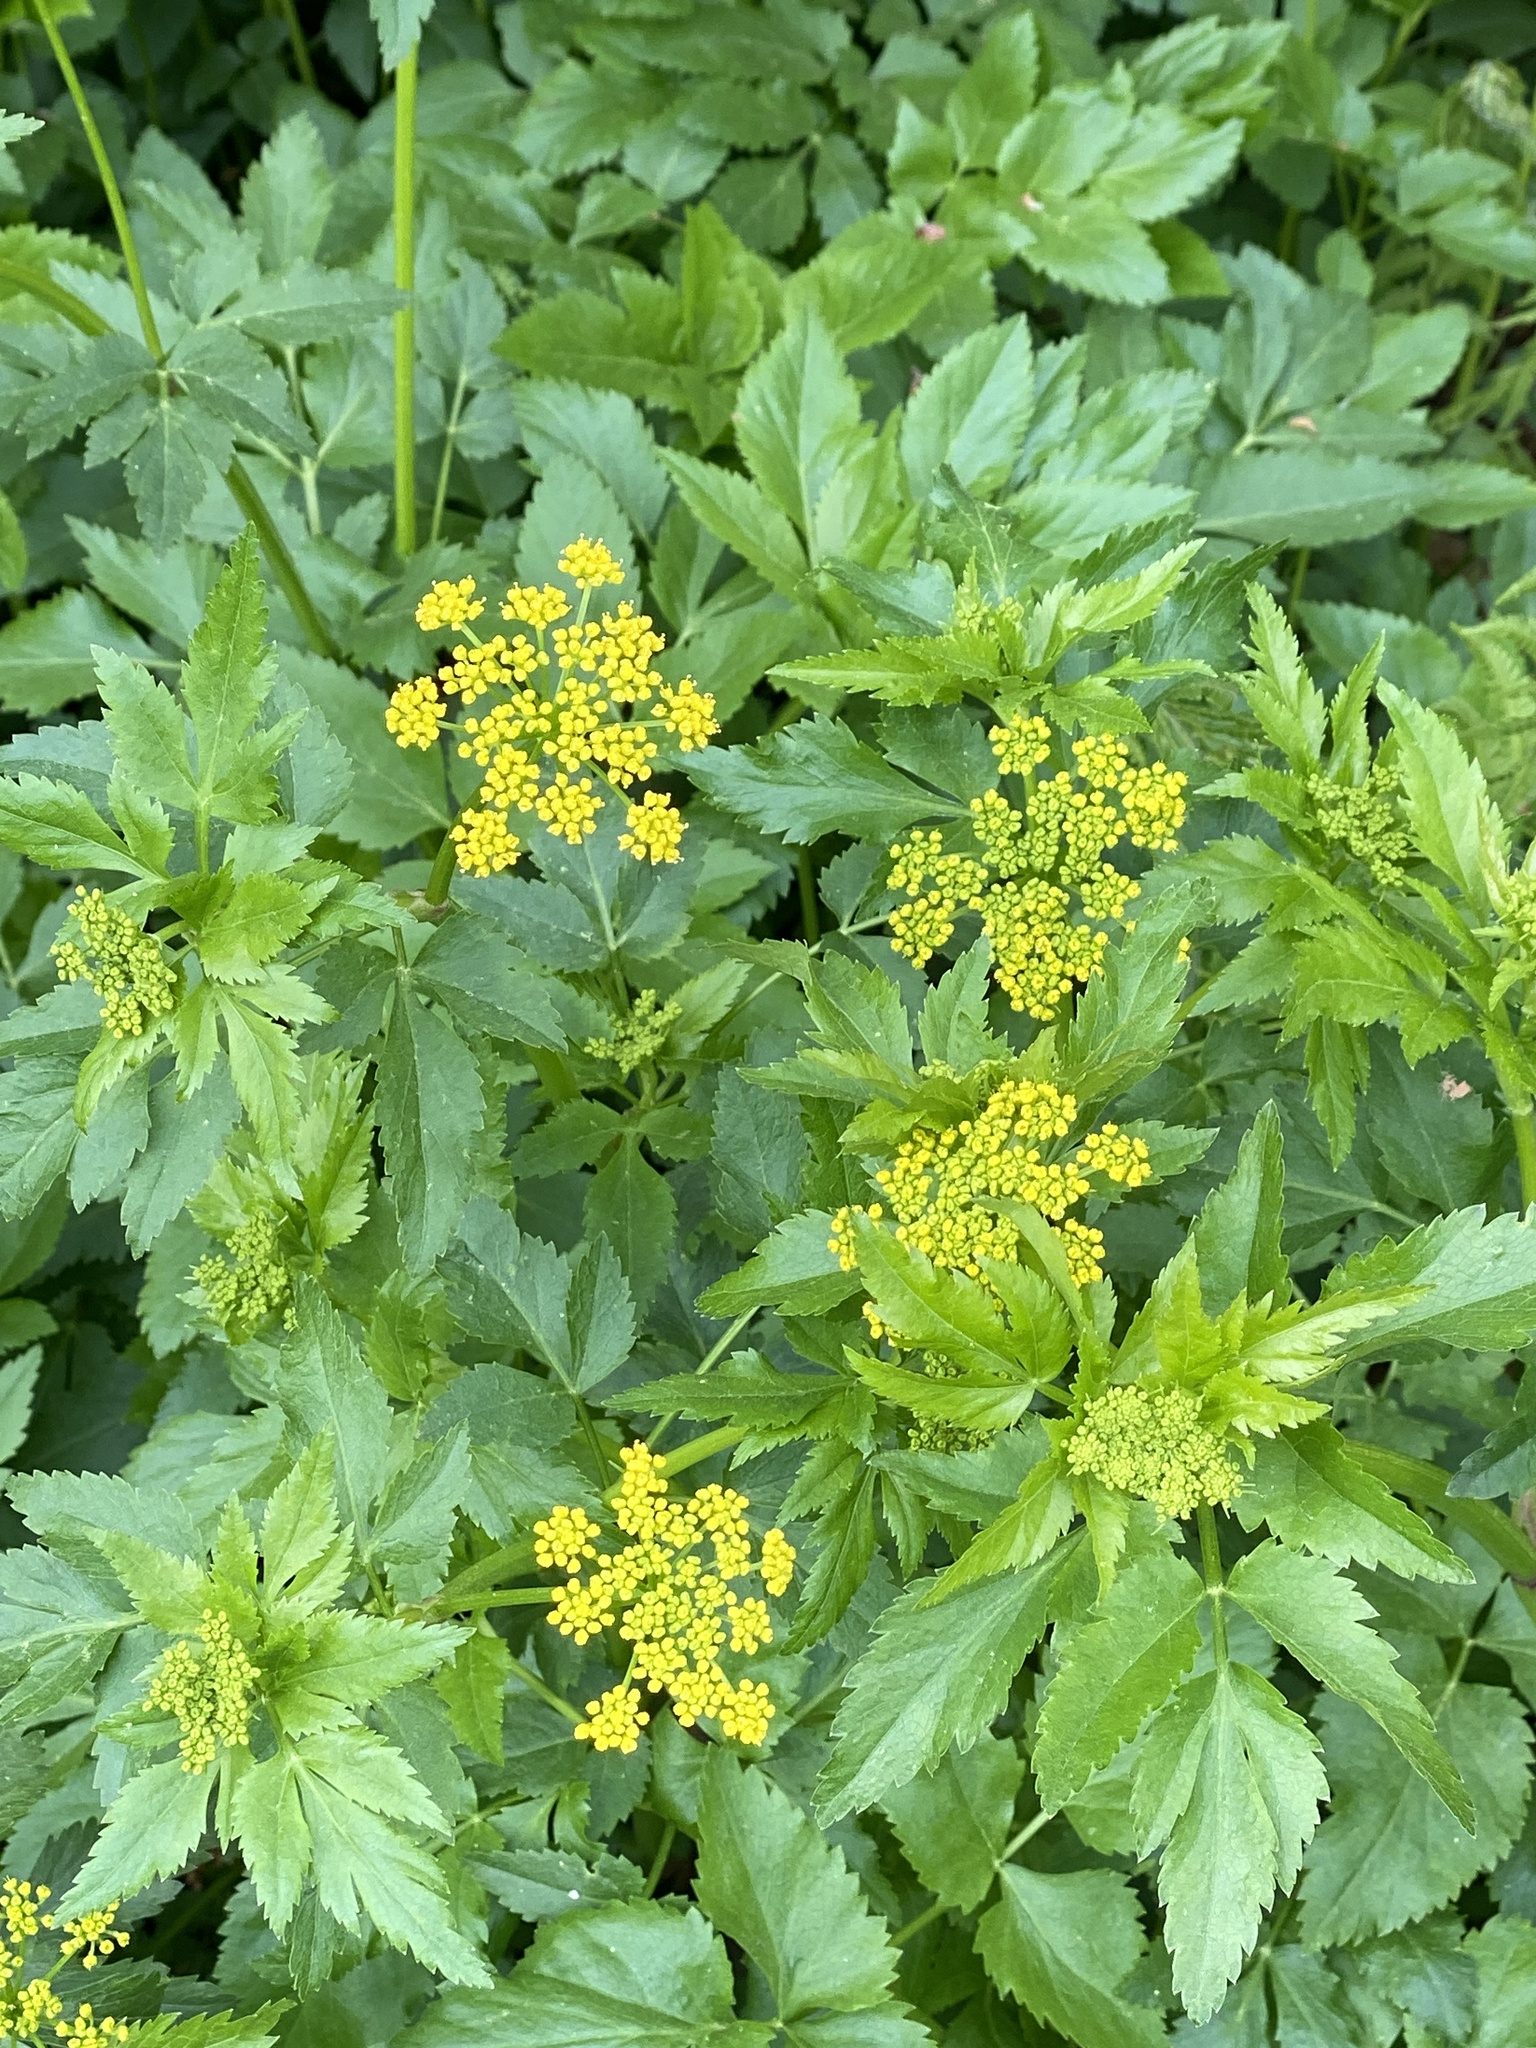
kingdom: Plantae
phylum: Tracheophyta
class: Magnoliopsida
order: Apiales
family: Apiaceae
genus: Zizia
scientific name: Zizia aurea
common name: Golden alexanders
